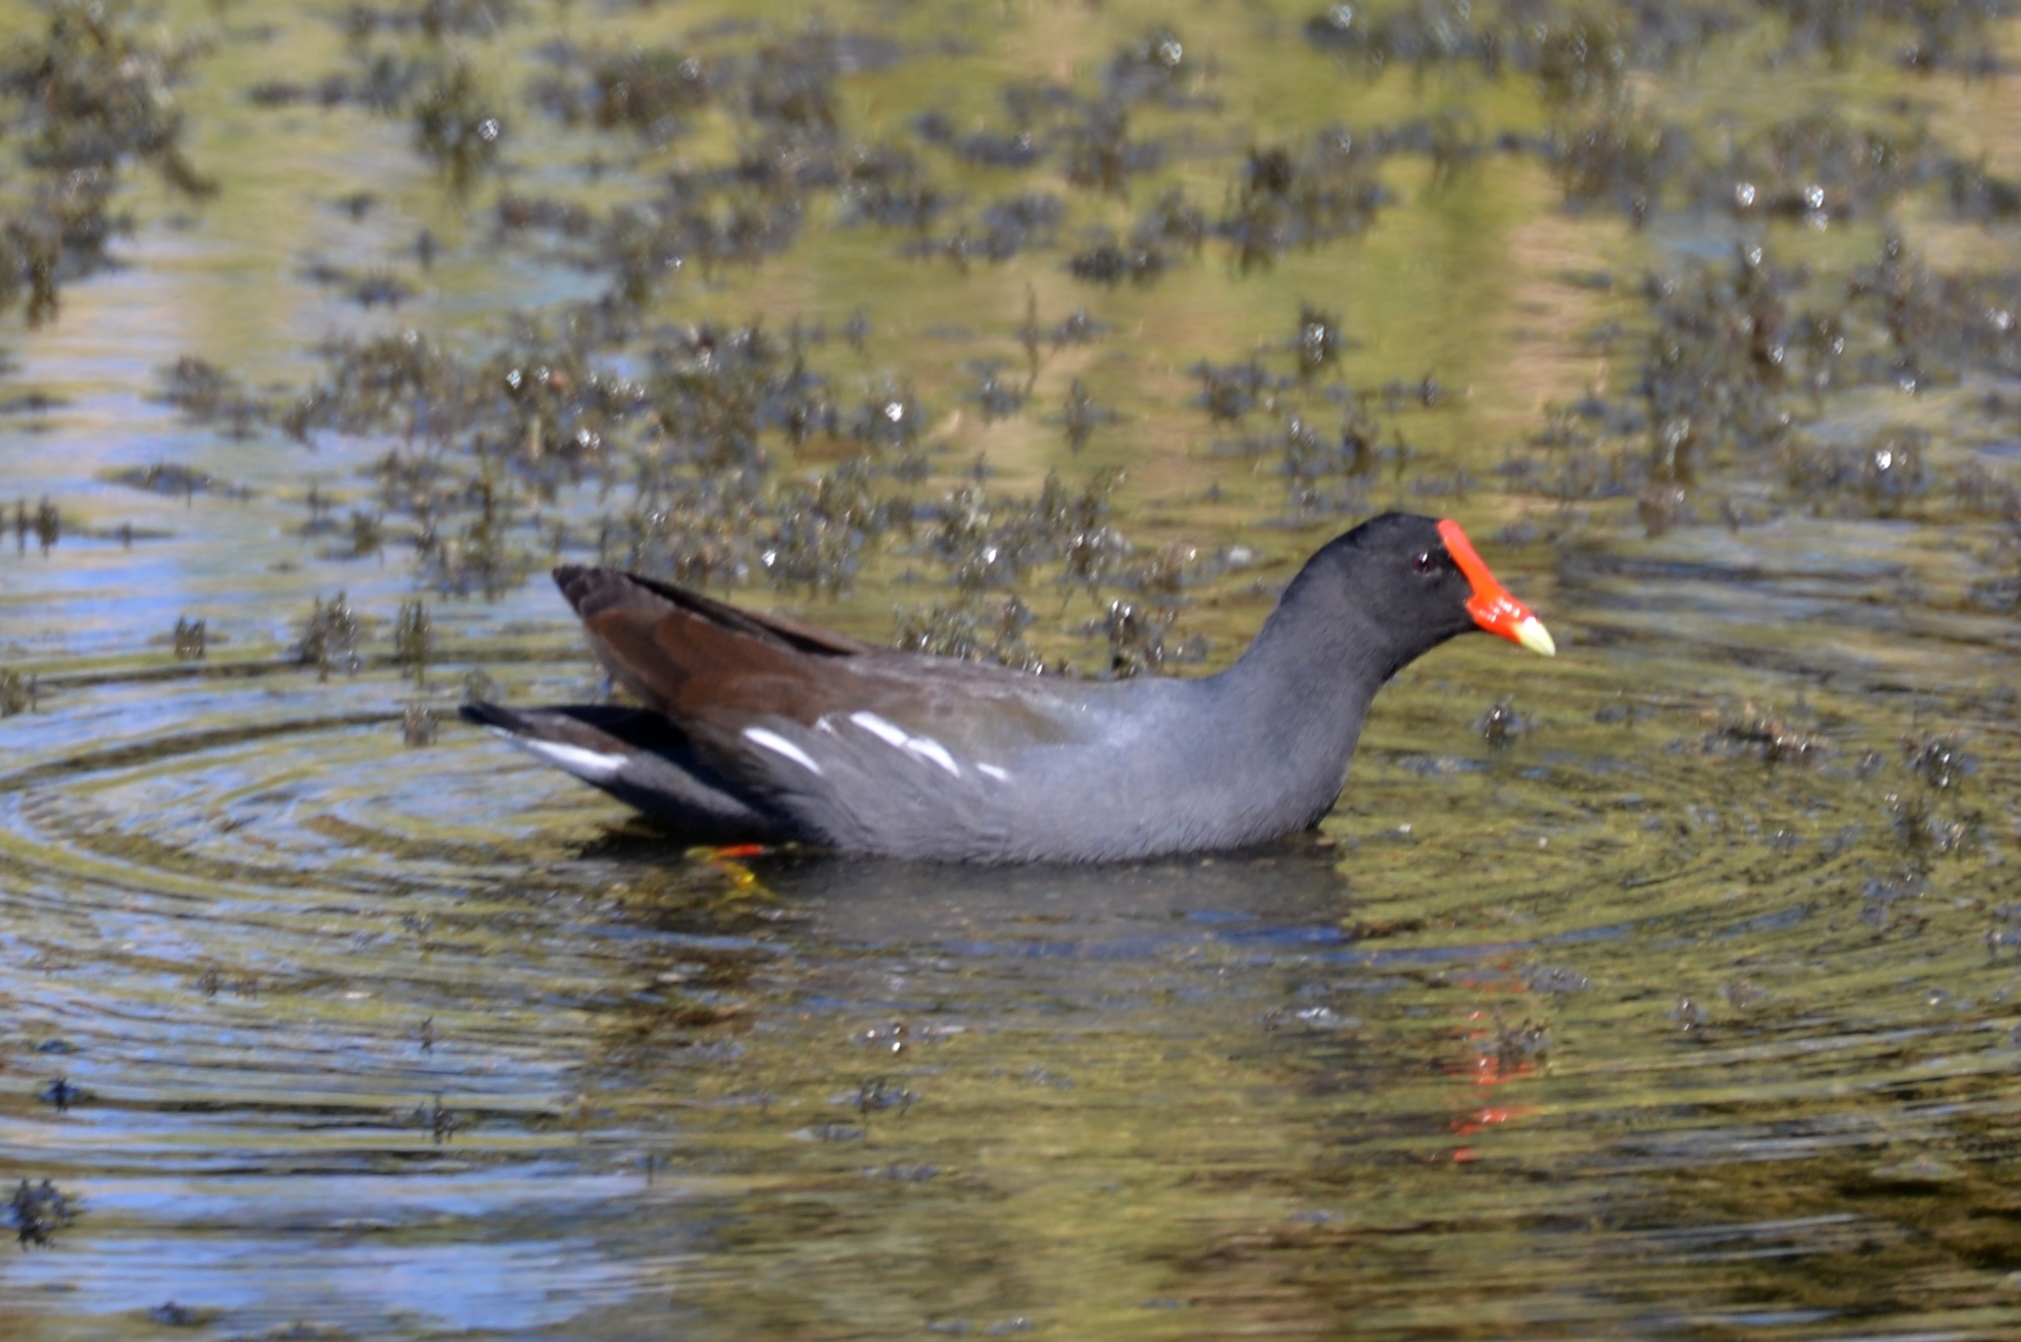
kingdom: Animalia
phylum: Chordata
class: Aves
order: Gruiformes
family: Rallidae
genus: Gallinula
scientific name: Gallinula chloropus
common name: Common moorhen
